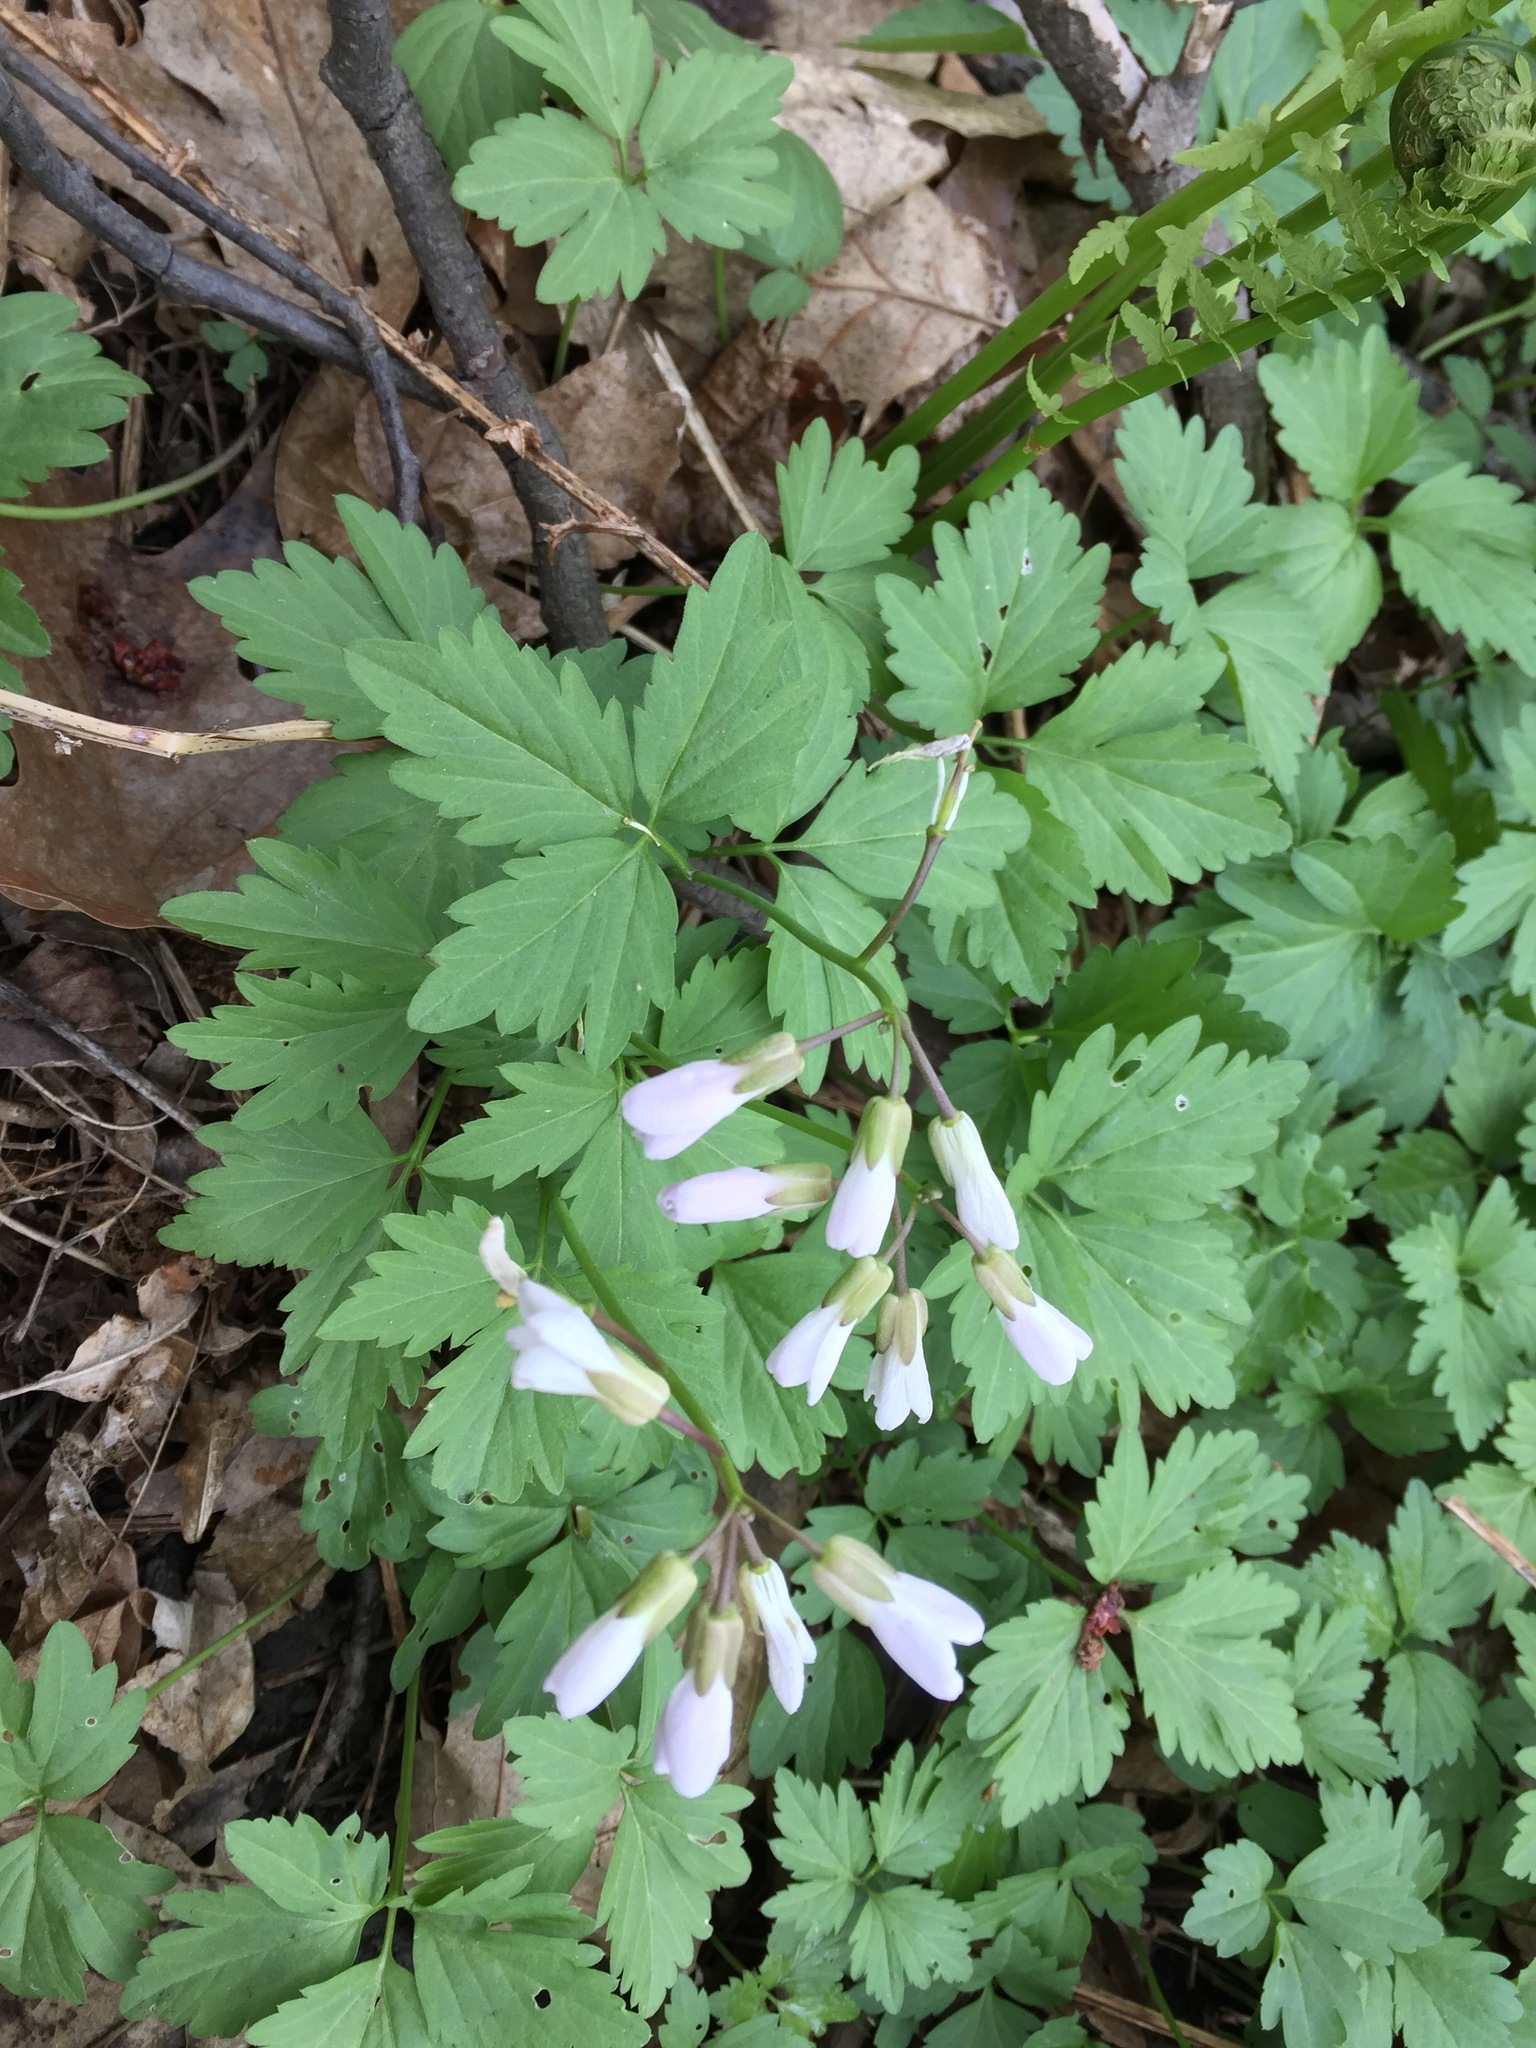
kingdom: Plantae
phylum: Tracheophyta
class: Magnoliopsida
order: Brassicales
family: Brassicaceae
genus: Cardamine
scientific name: Cardamine diphylla
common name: Broad-leaved toothwort
